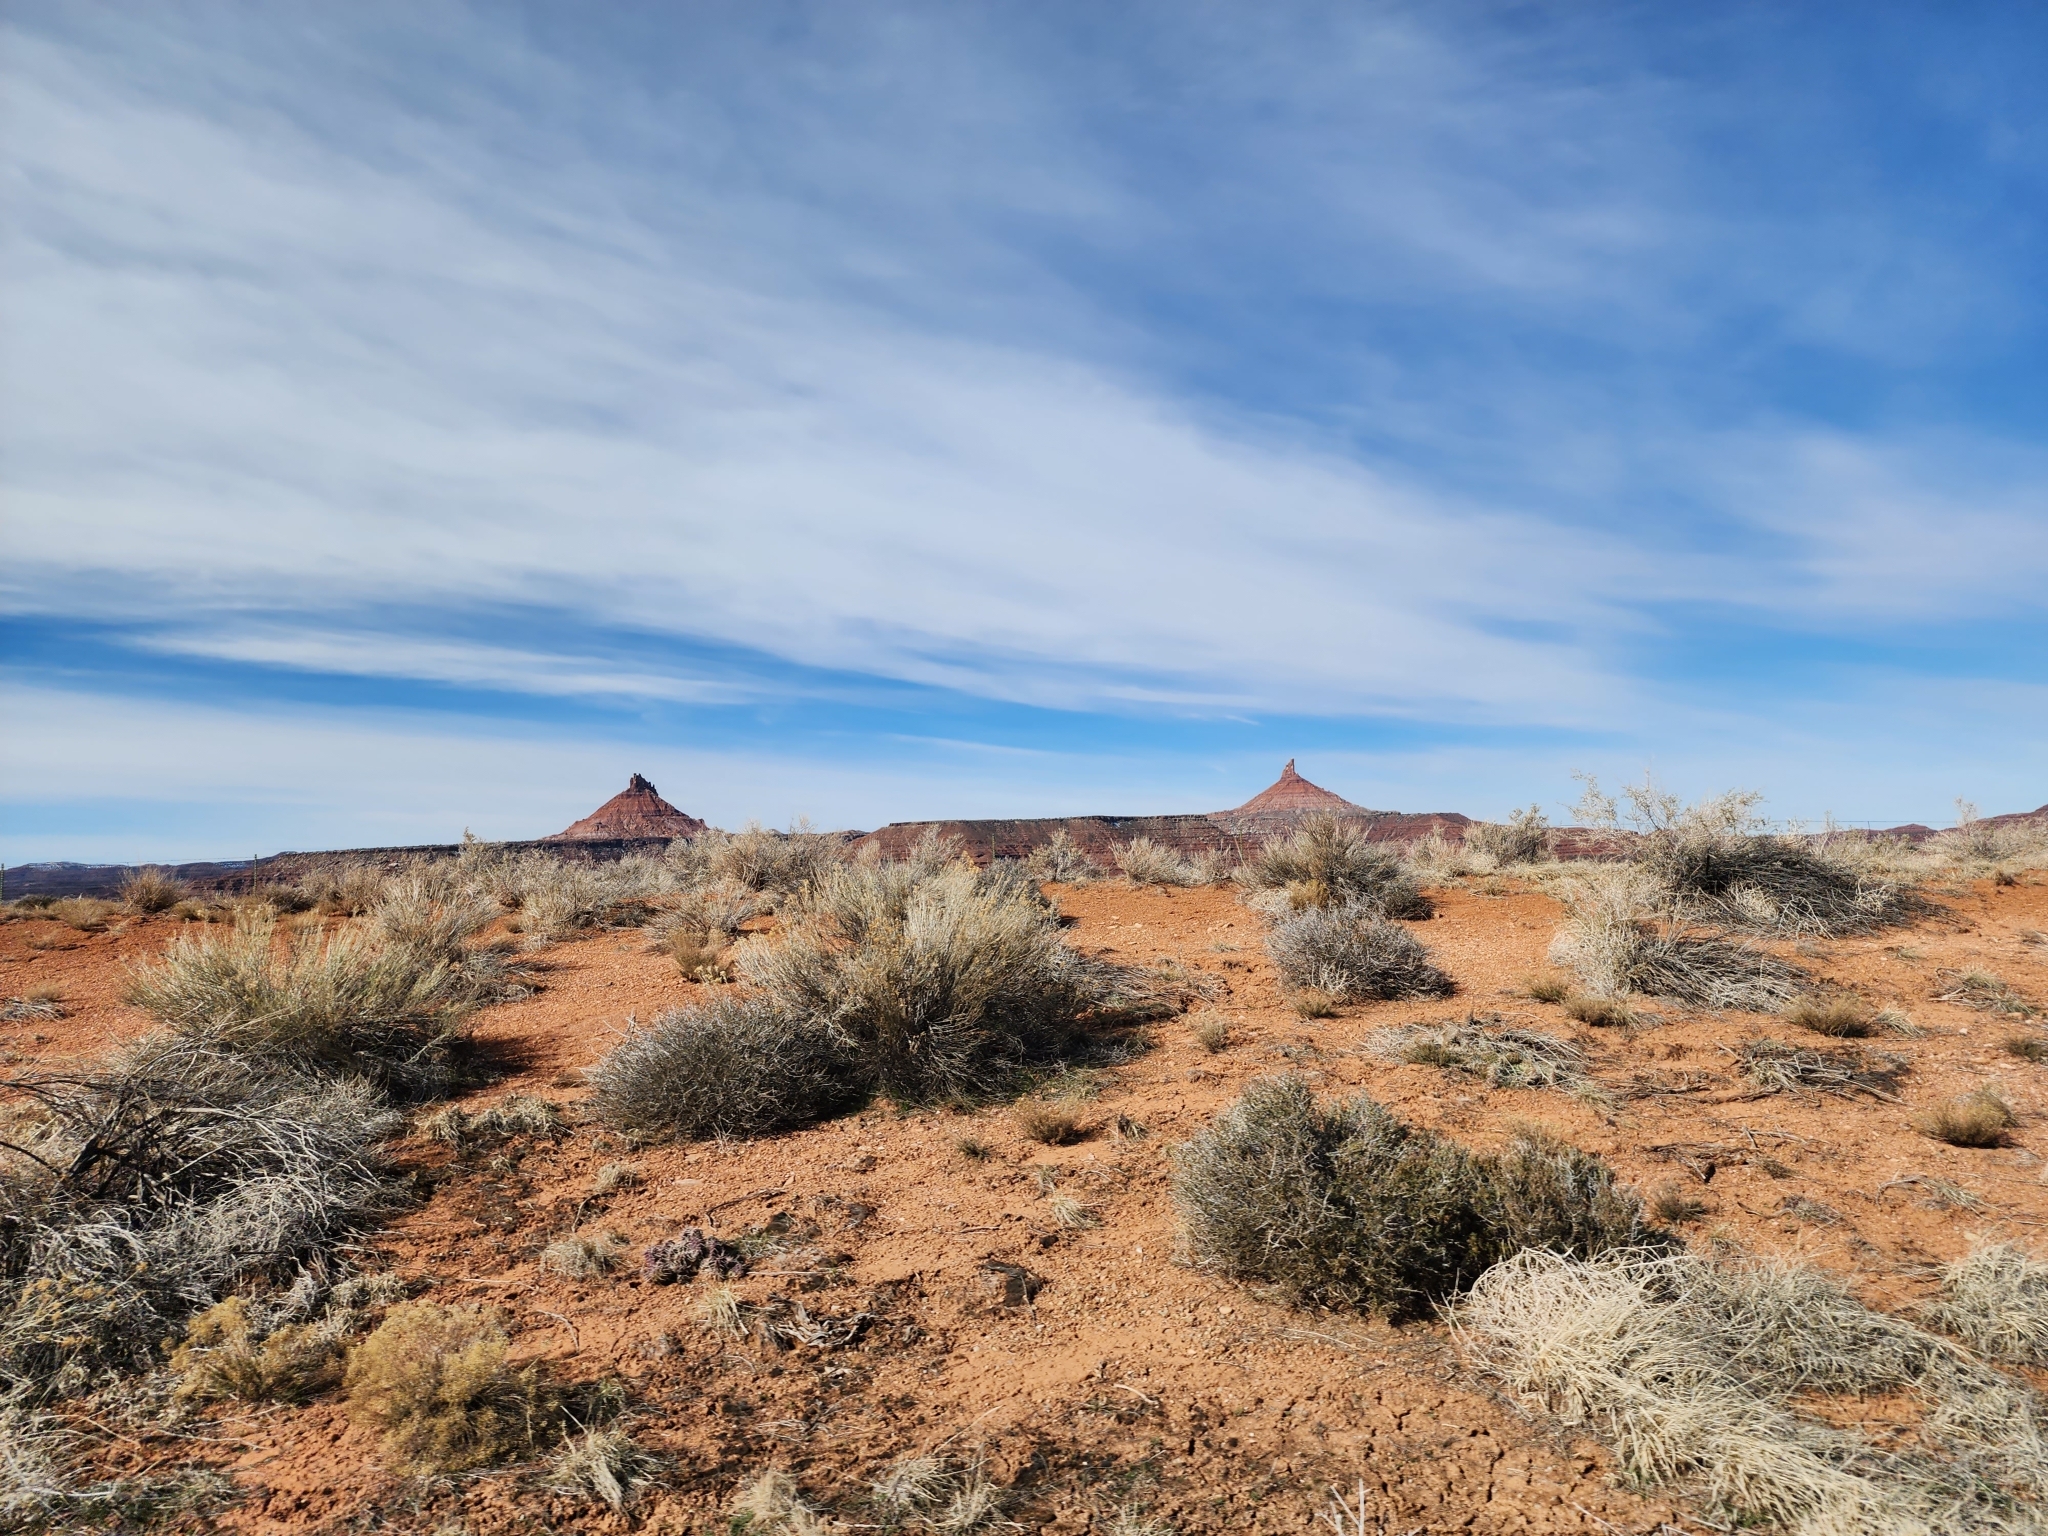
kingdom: Plantae
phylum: Tracheophyta
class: Magnoliopsida
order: Asterales
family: Asteraceae
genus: Ericameria
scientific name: Ericameria nauseosa
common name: Rubber rabbitbrush
